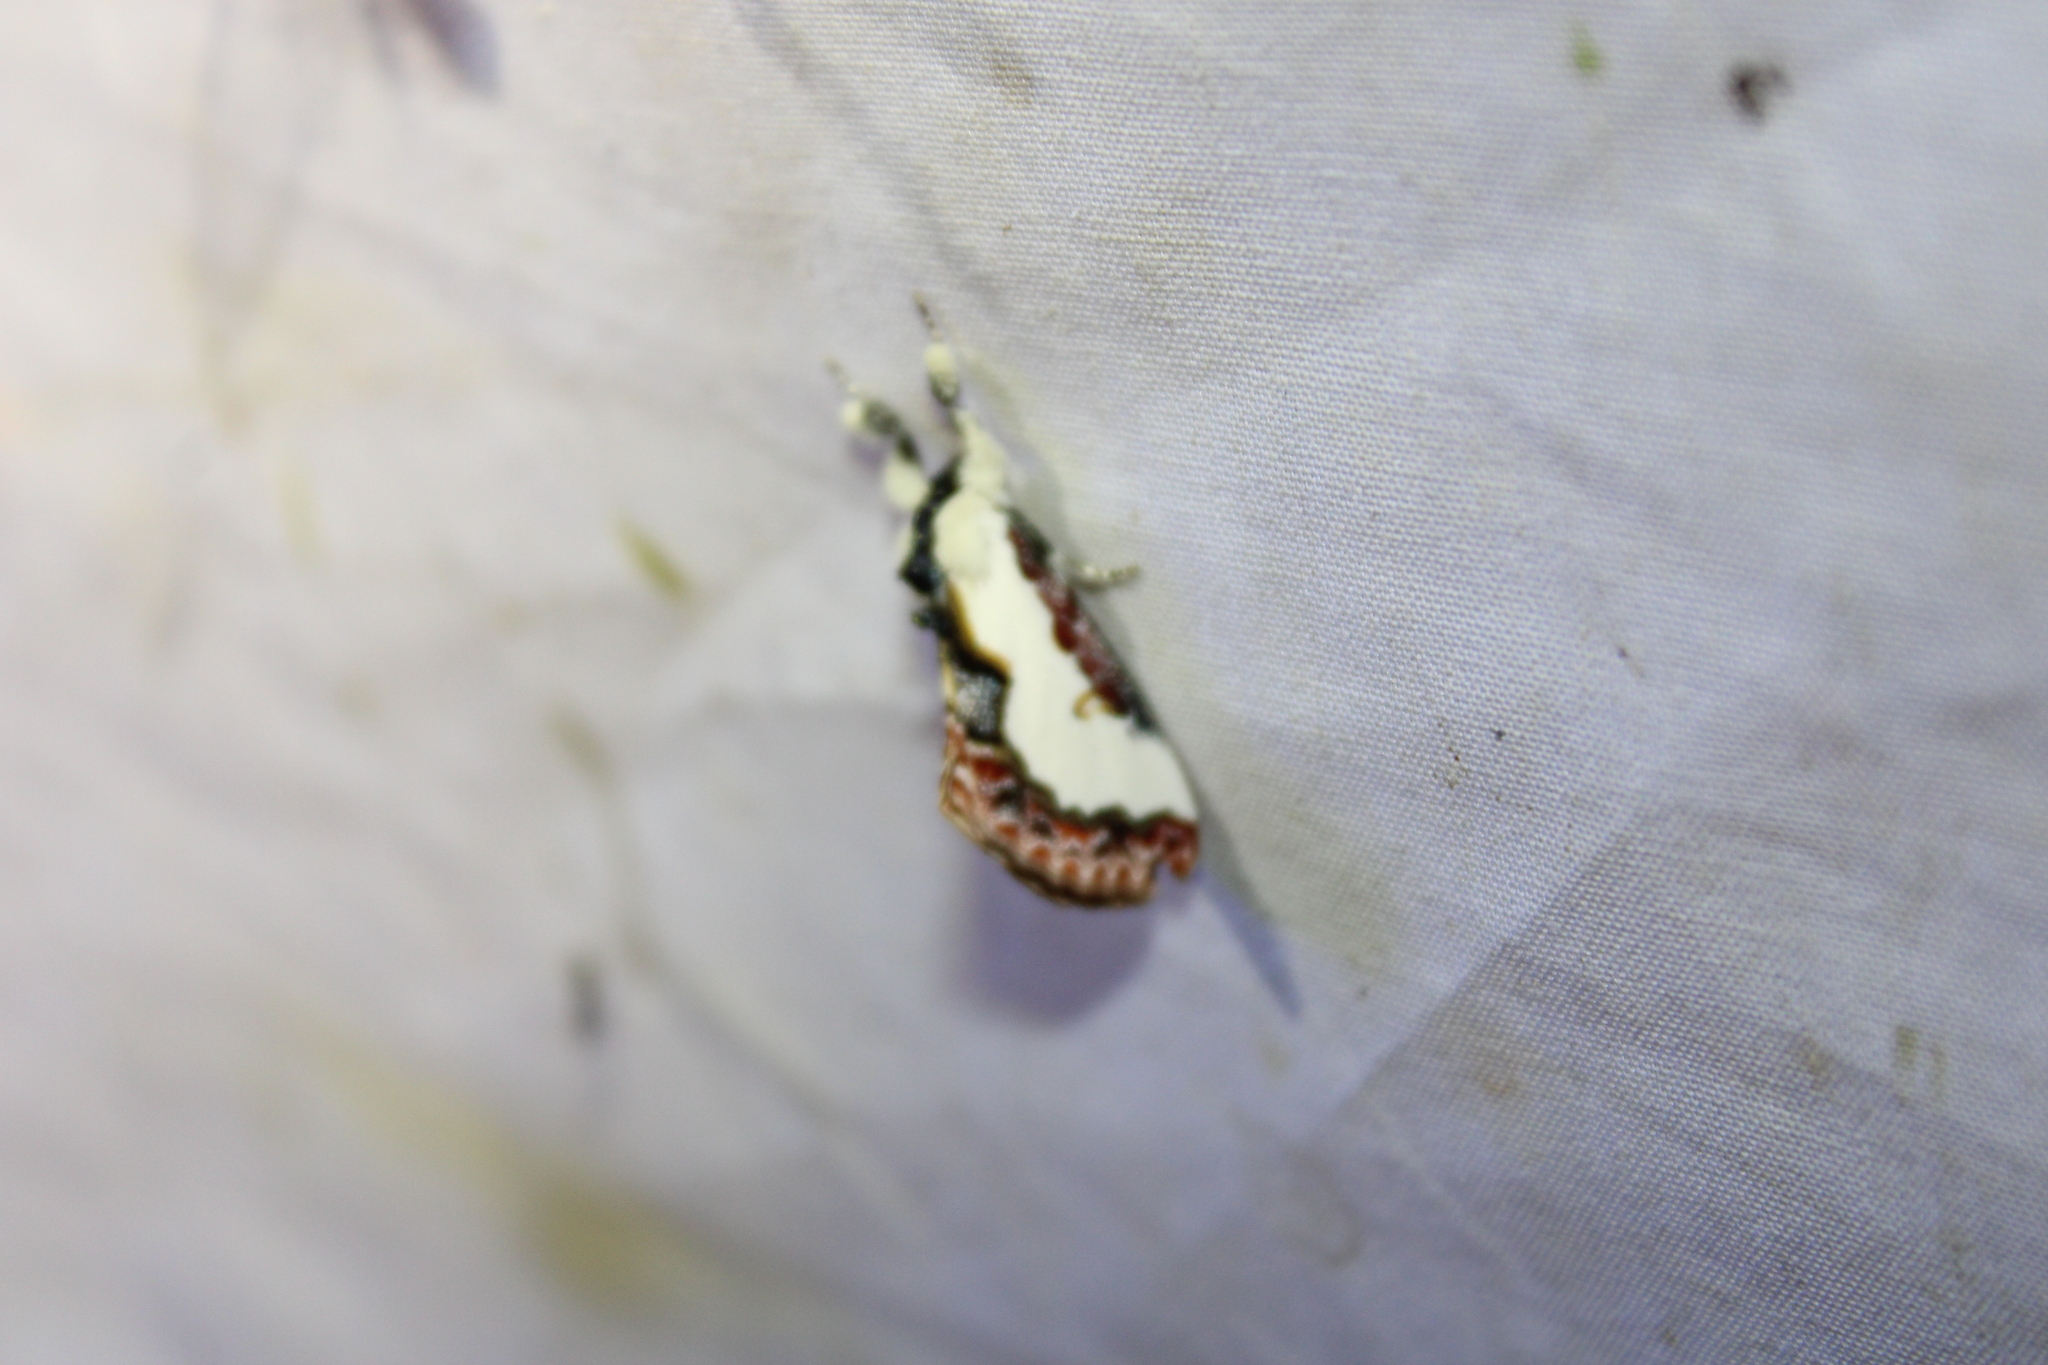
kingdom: Animalia
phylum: Arthropoda
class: Insecta
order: Lepidoptera
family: Noctuidae
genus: Eudryas
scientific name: Eudryas unio
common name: Pearly wood-nymph
